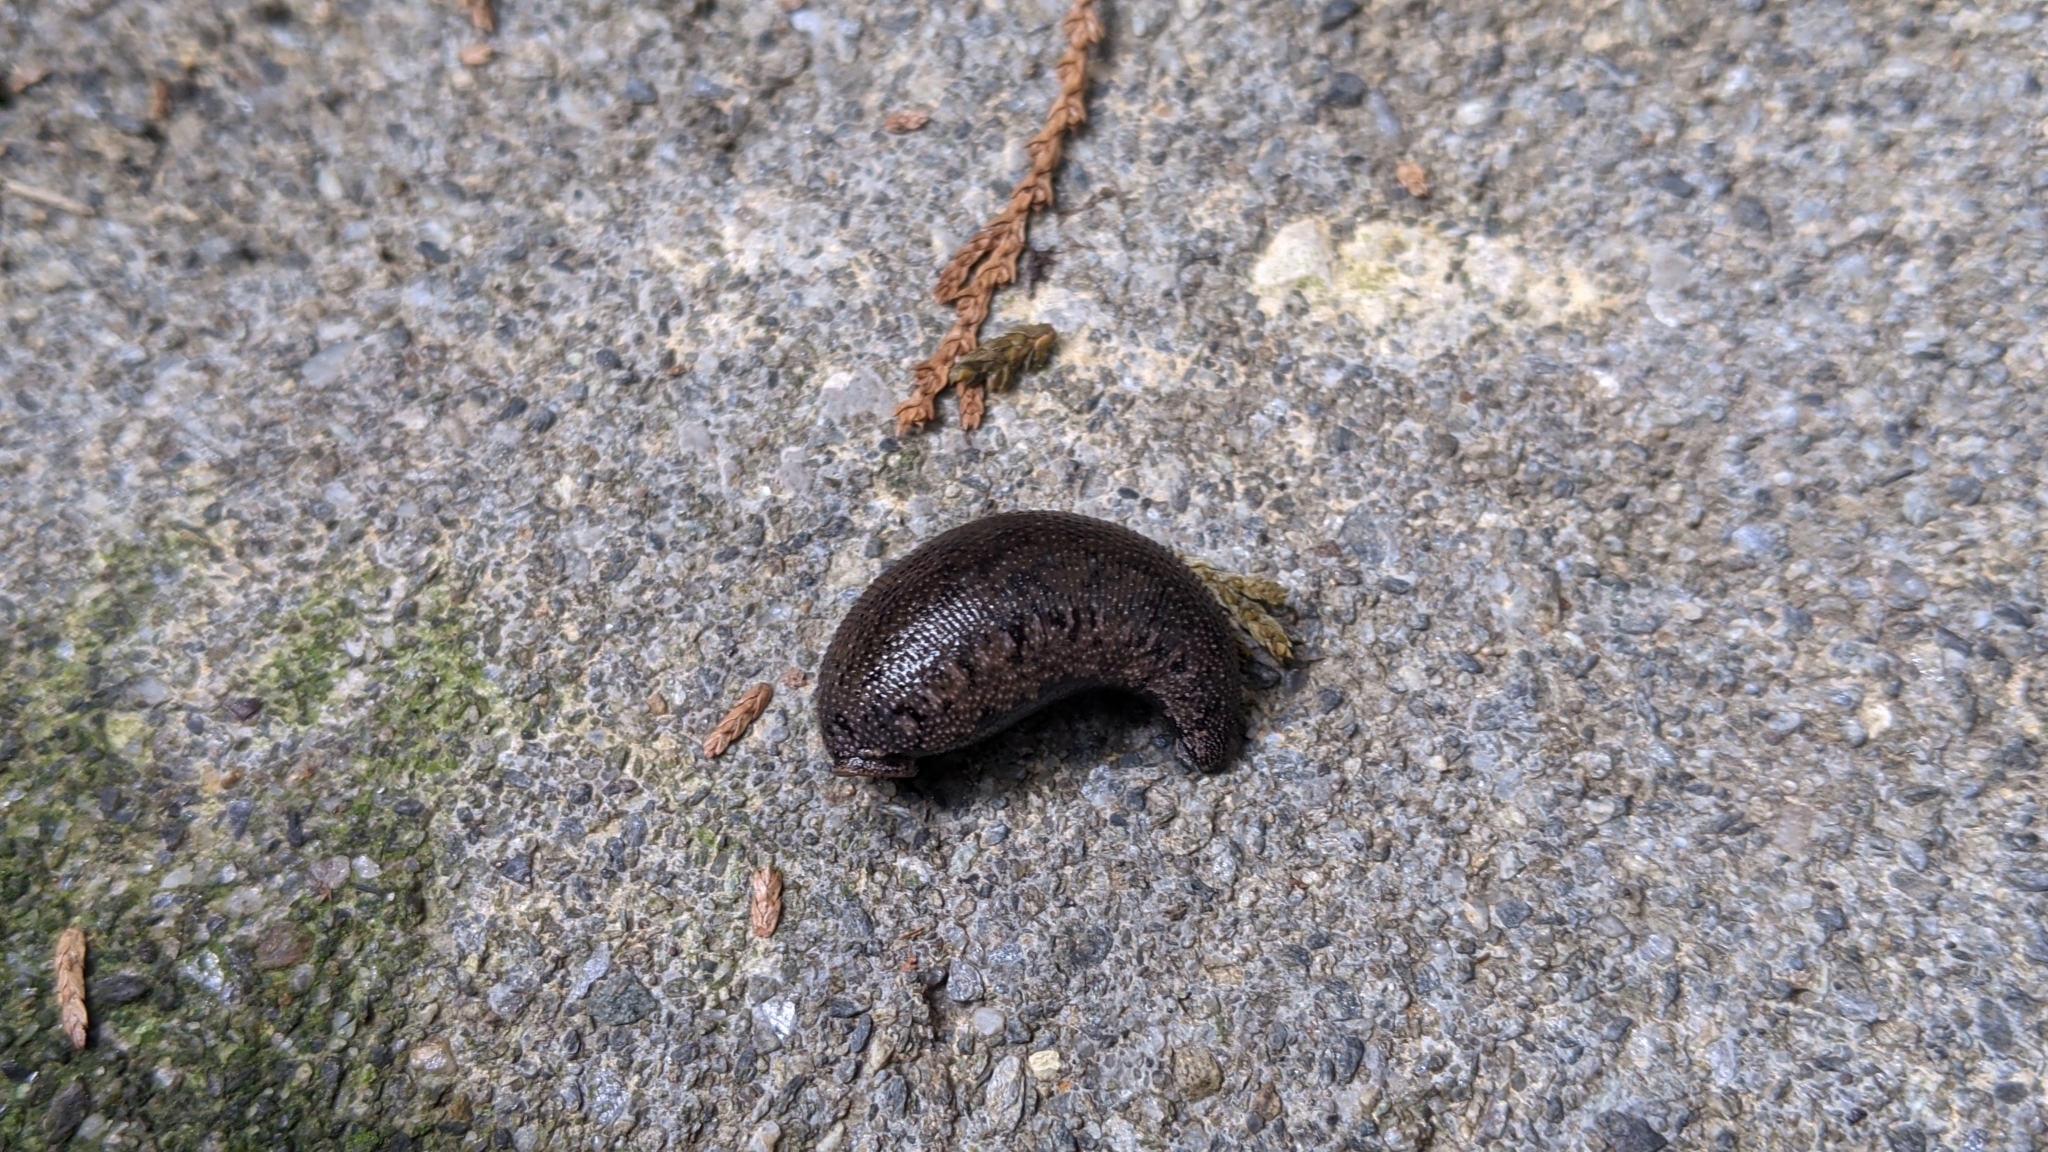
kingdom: Animalia
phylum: Annelida
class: Clitellata
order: Arhynchobdellida
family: Haemadipsidae
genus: Haemadipsa
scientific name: Haemadipsa rjukjuana
